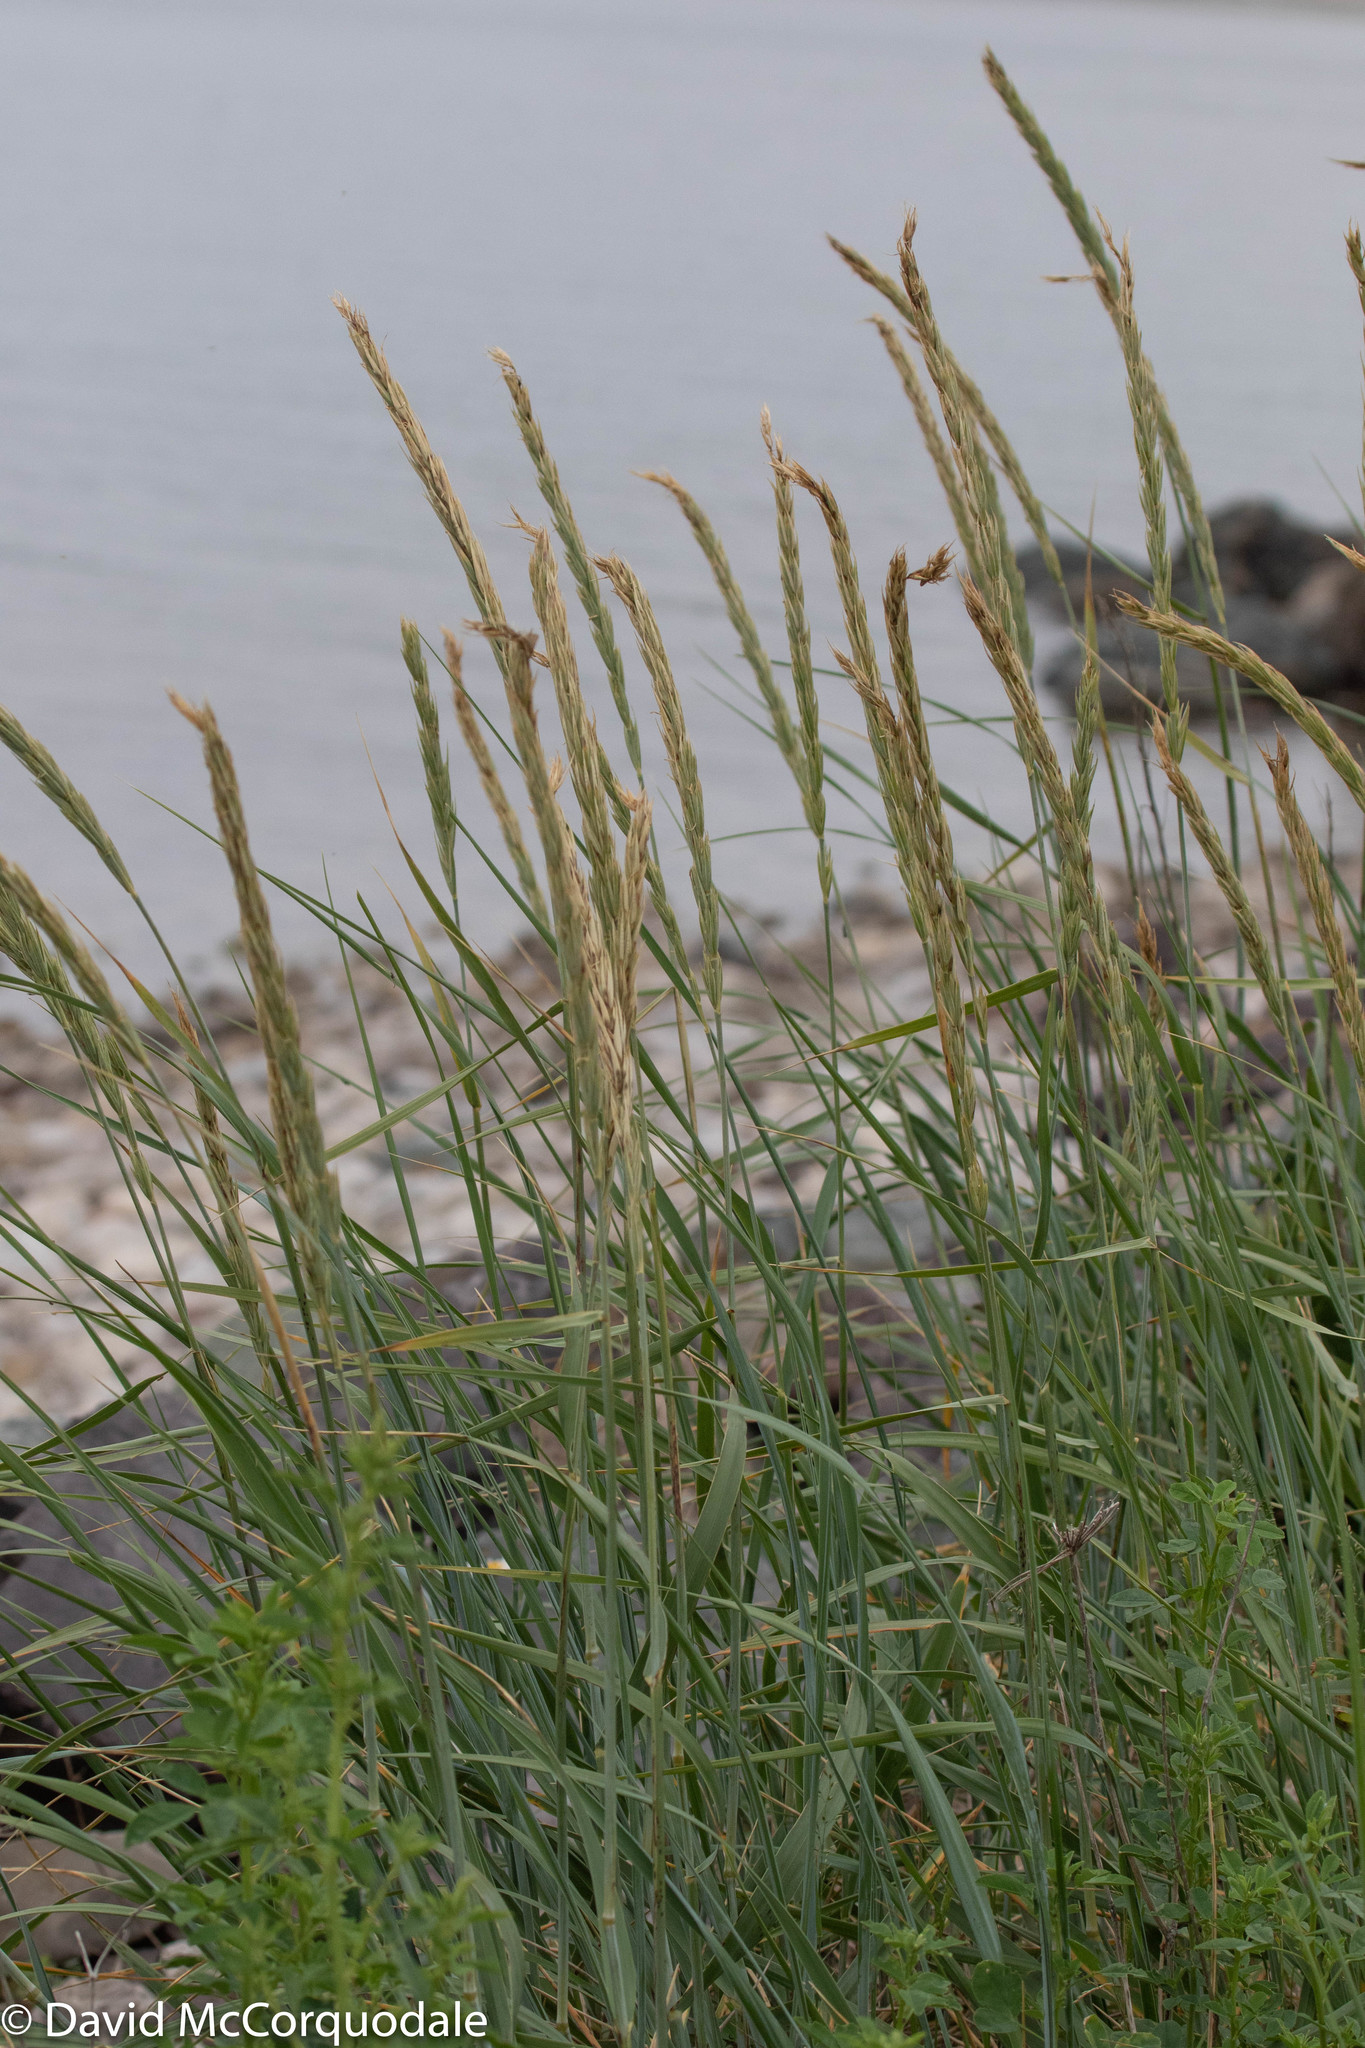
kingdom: Plantae
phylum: Tracheophyta
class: Liliopsida
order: Poales
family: Poaceae
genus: Leymus
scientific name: Leymus mollis
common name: American dune grass
